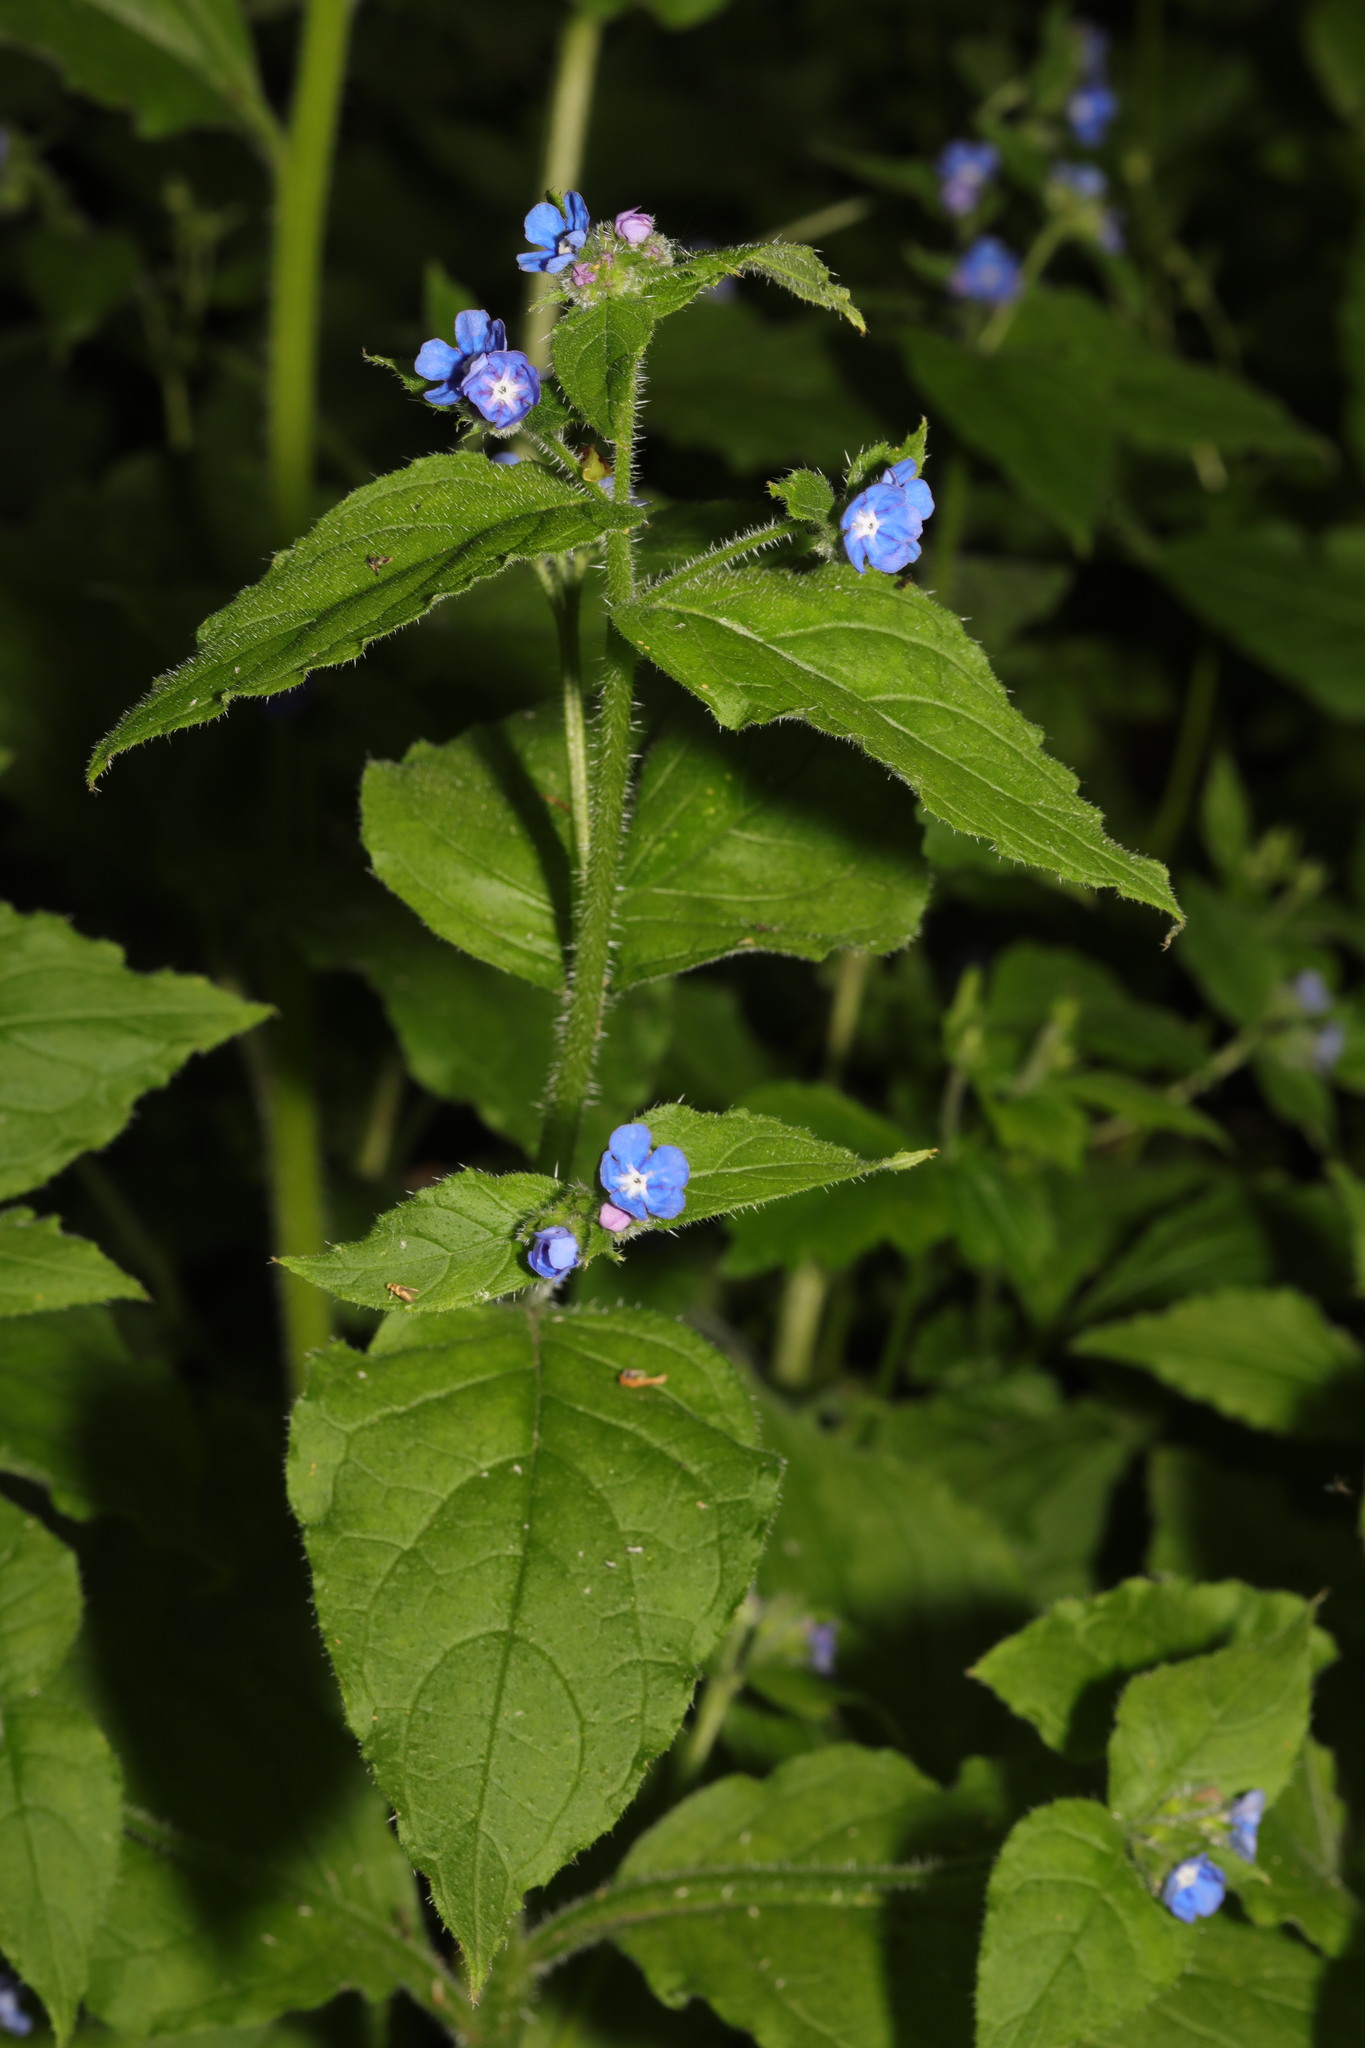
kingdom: Plantae
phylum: Tracheophyta
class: Magnoliopsida
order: Boraginales
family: Boraginaceae
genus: Pentaglottis
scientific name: Pentaglottis sempervirens
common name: Green alkanet
